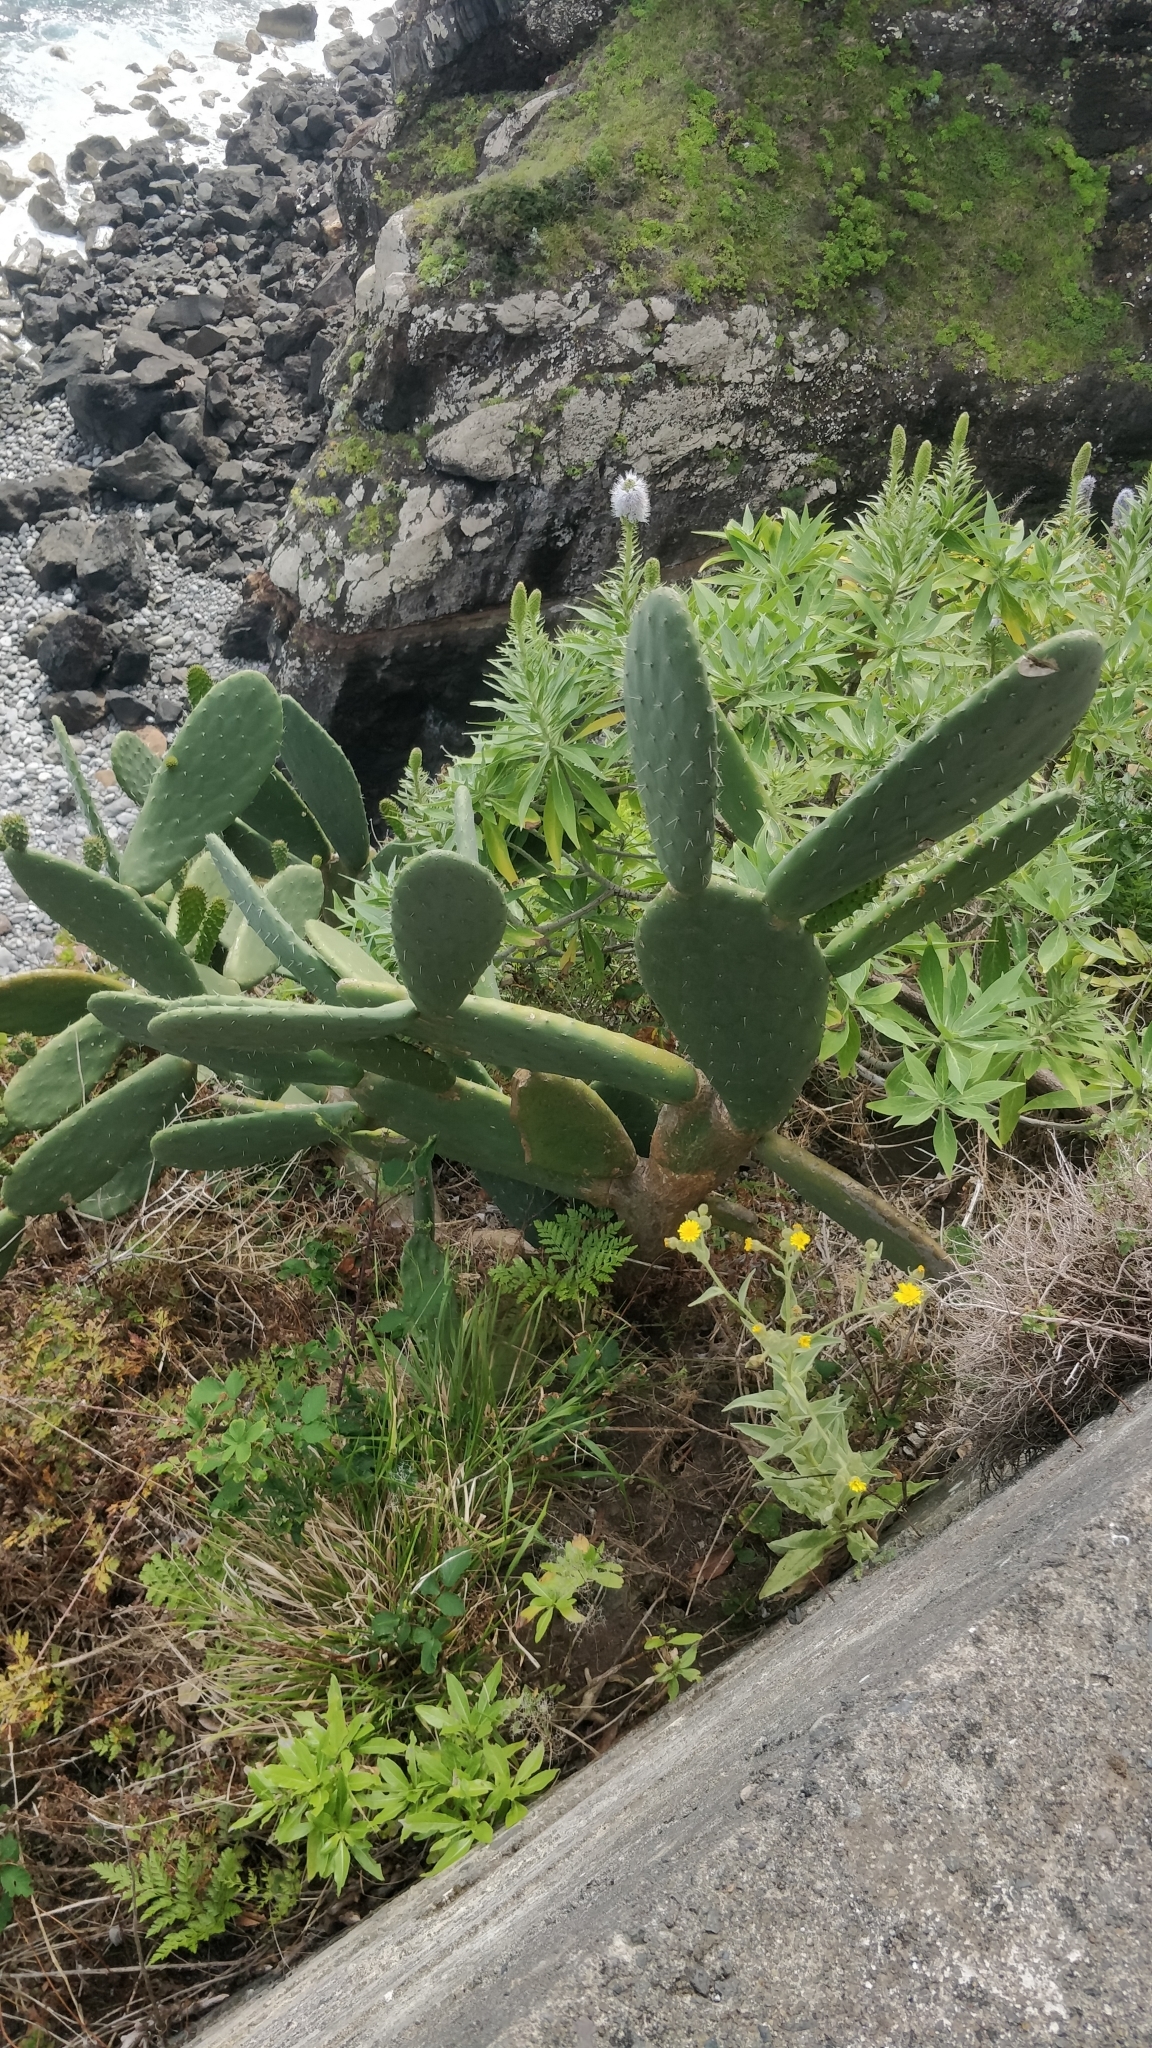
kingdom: Plantae
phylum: Tracheophyta
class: Magnoliopsida
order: Caryophyllales
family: Cactaceae
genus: Opuntia
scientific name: Opuntia ficus-indica
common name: Barbary fig
